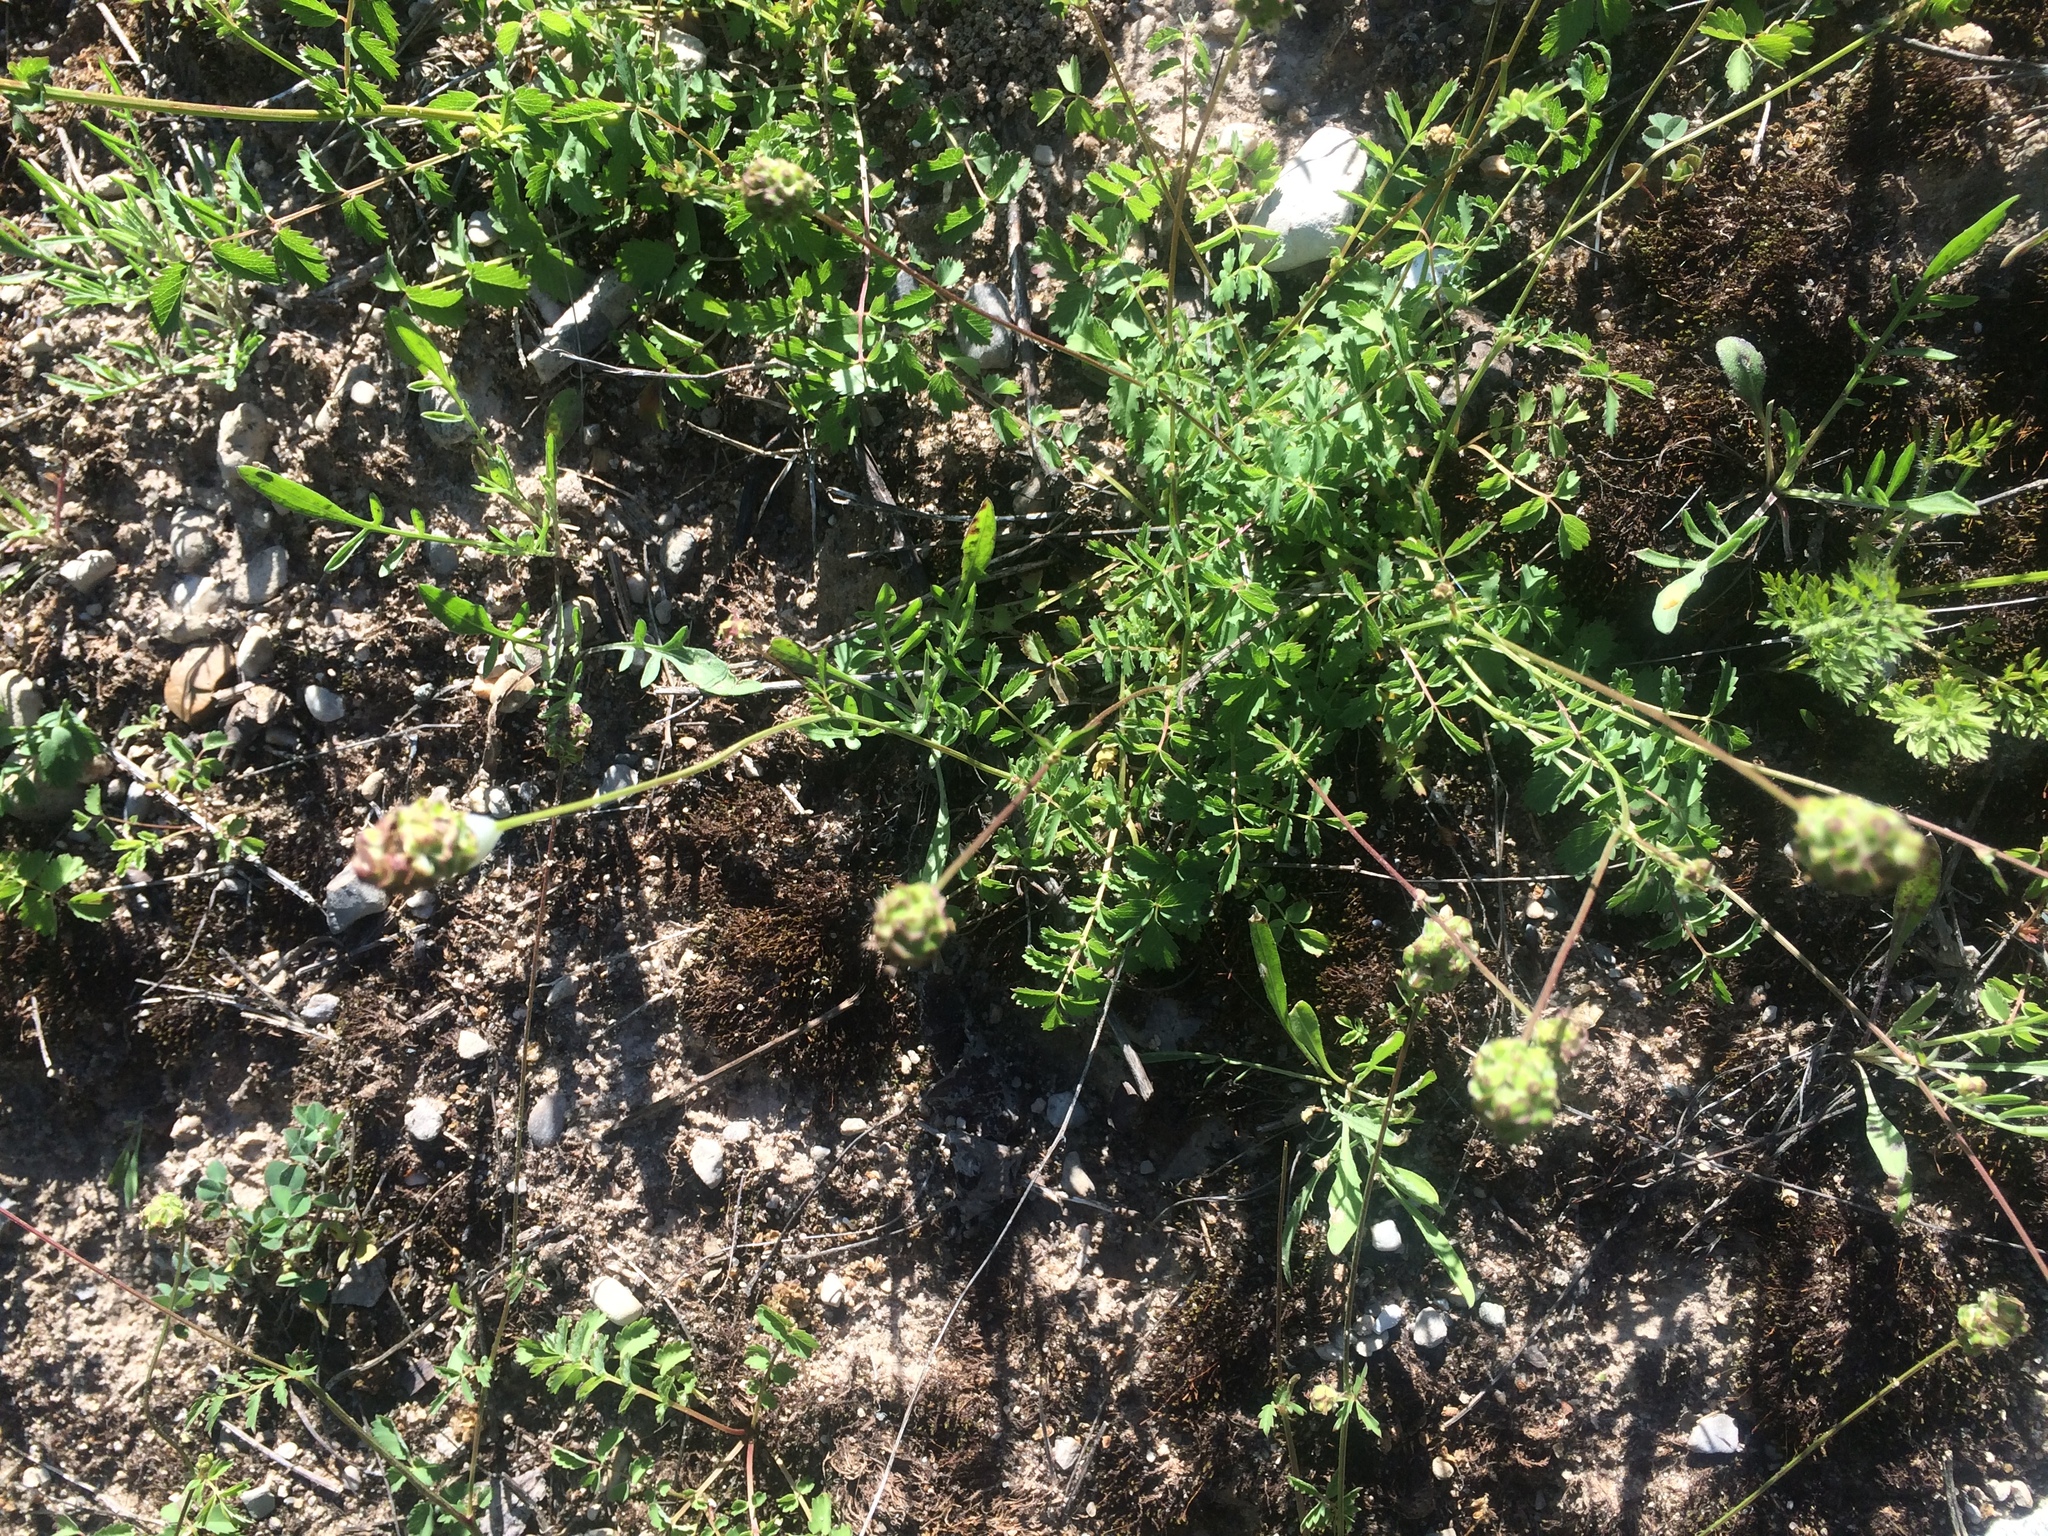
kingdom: Plantae
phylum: Tracheophyta
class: Magnoliopsida
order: Rosales
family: Rosaceae
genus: Poterium
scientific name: Poterium sanguisorba
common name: Salad burnet
